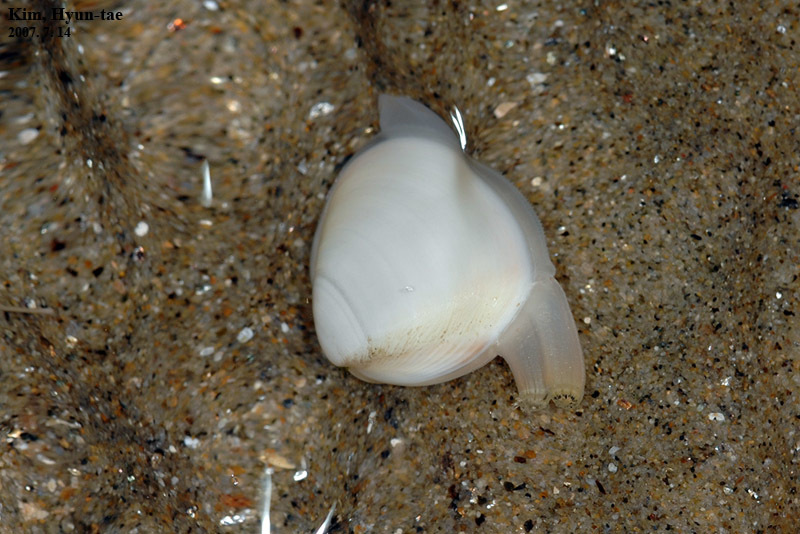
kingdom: Animalia
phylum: Mollusca
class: Bivalvia
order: Venerida
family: Mactridae
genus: Mactra
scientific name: Mactra quadrangularis
